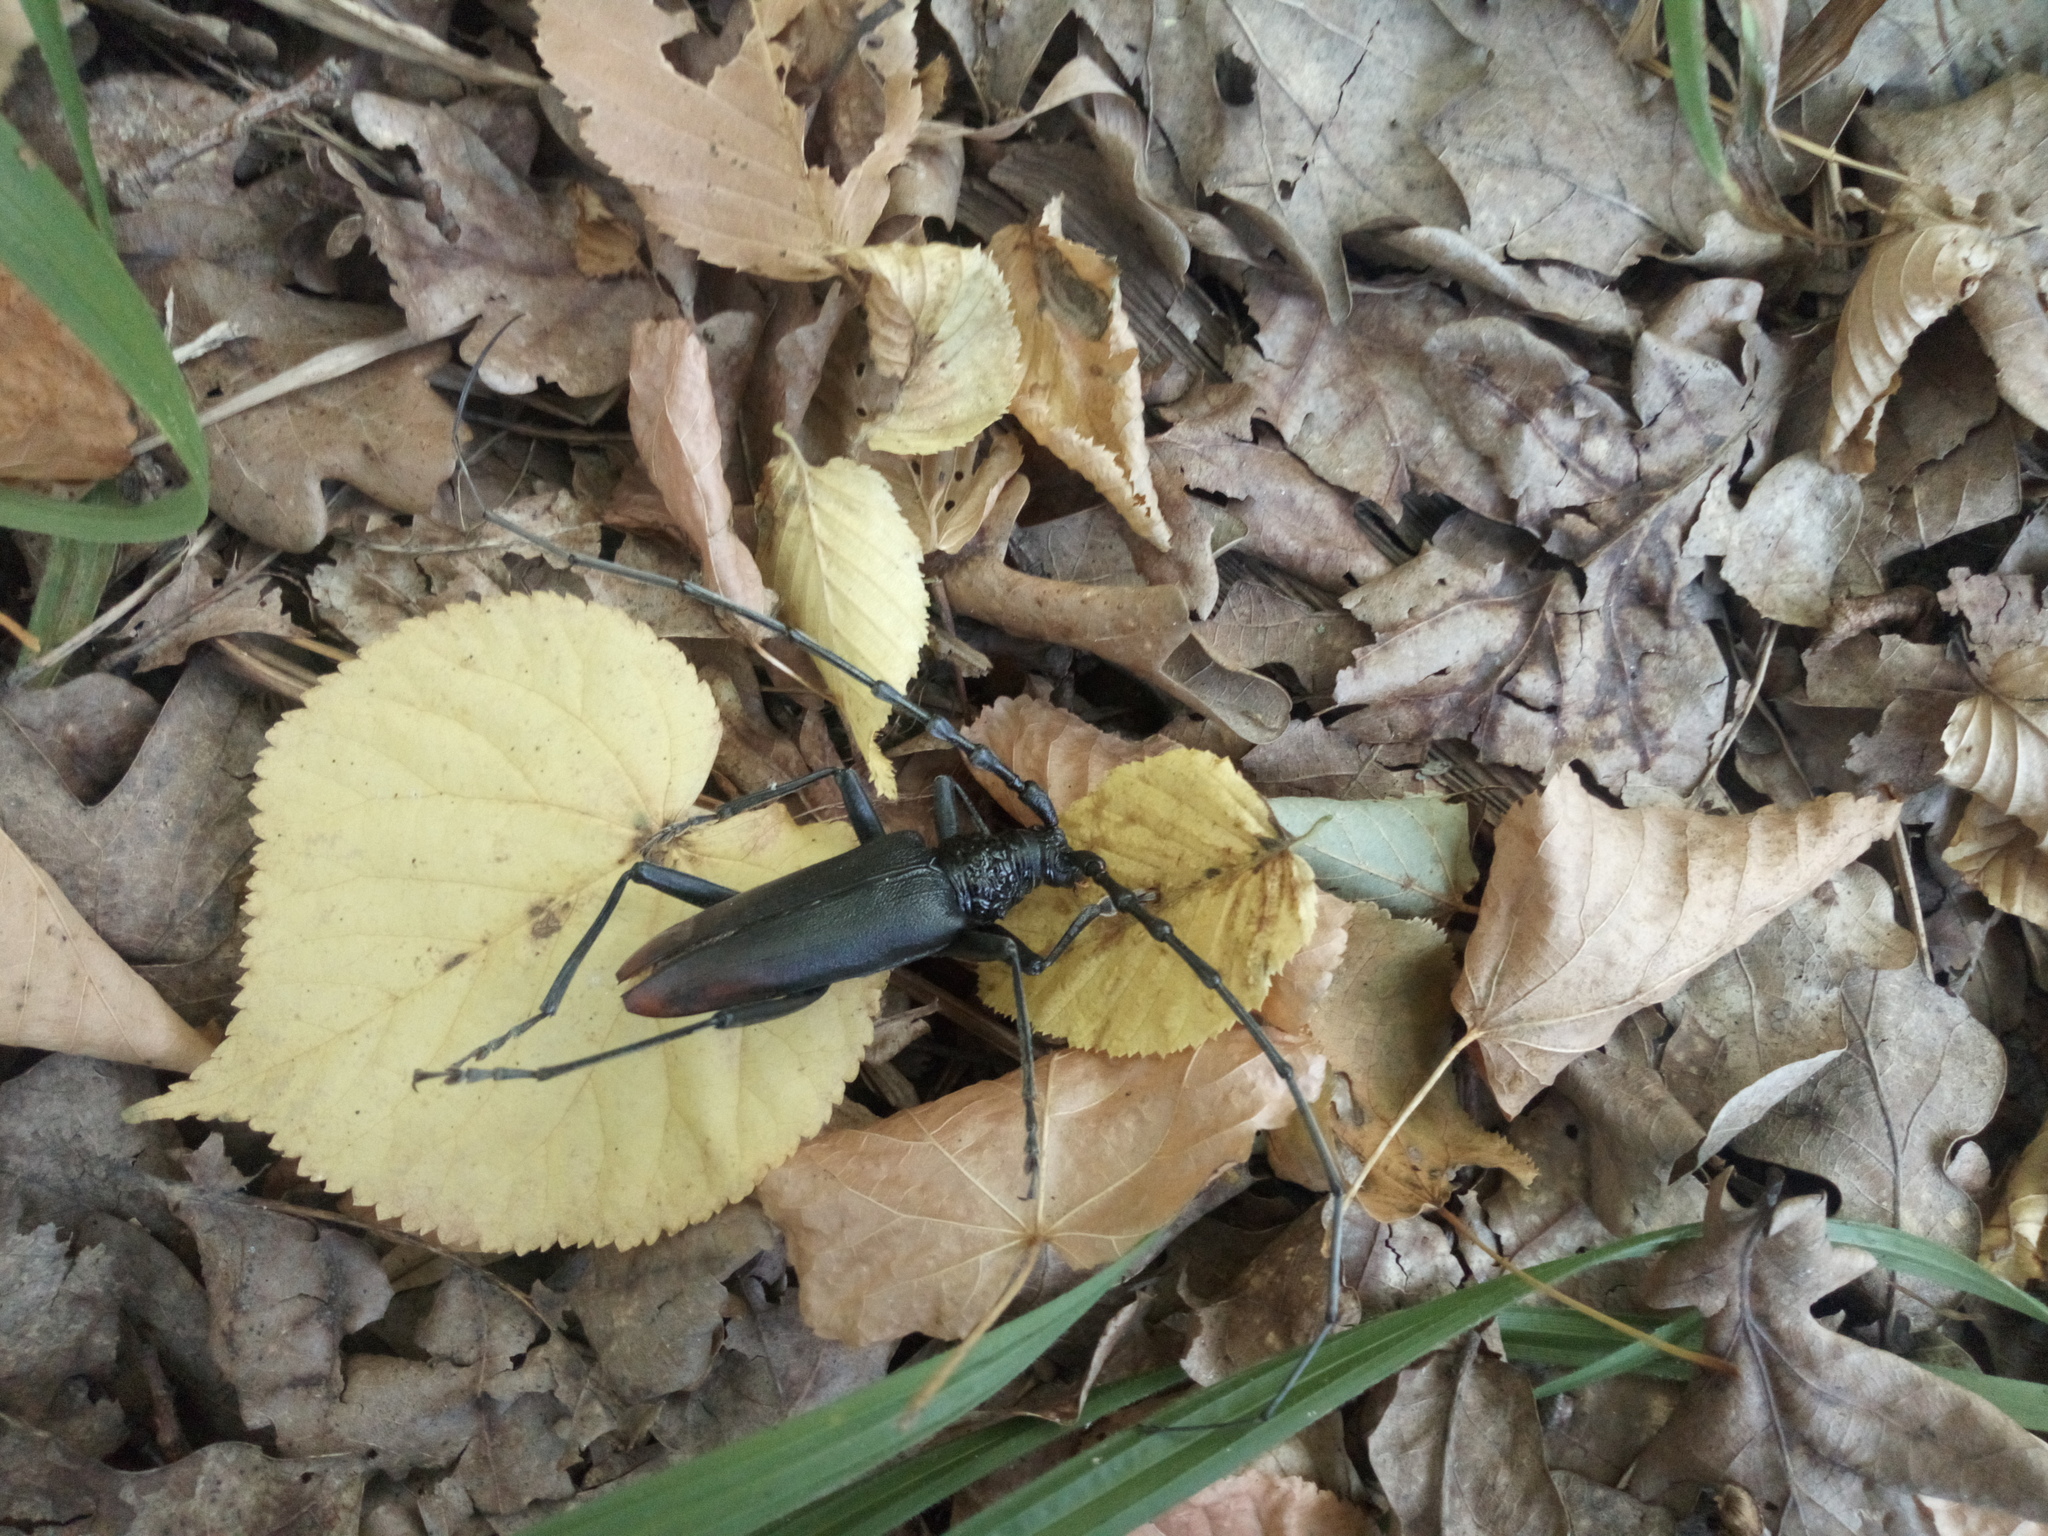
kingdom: Animalia
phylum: Arthropoda
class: Insecta
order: Coleoptera
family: Cerambycidae
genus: Cerambyx
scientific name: Cerambyx cerdo
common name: Cerambyx longicorn
